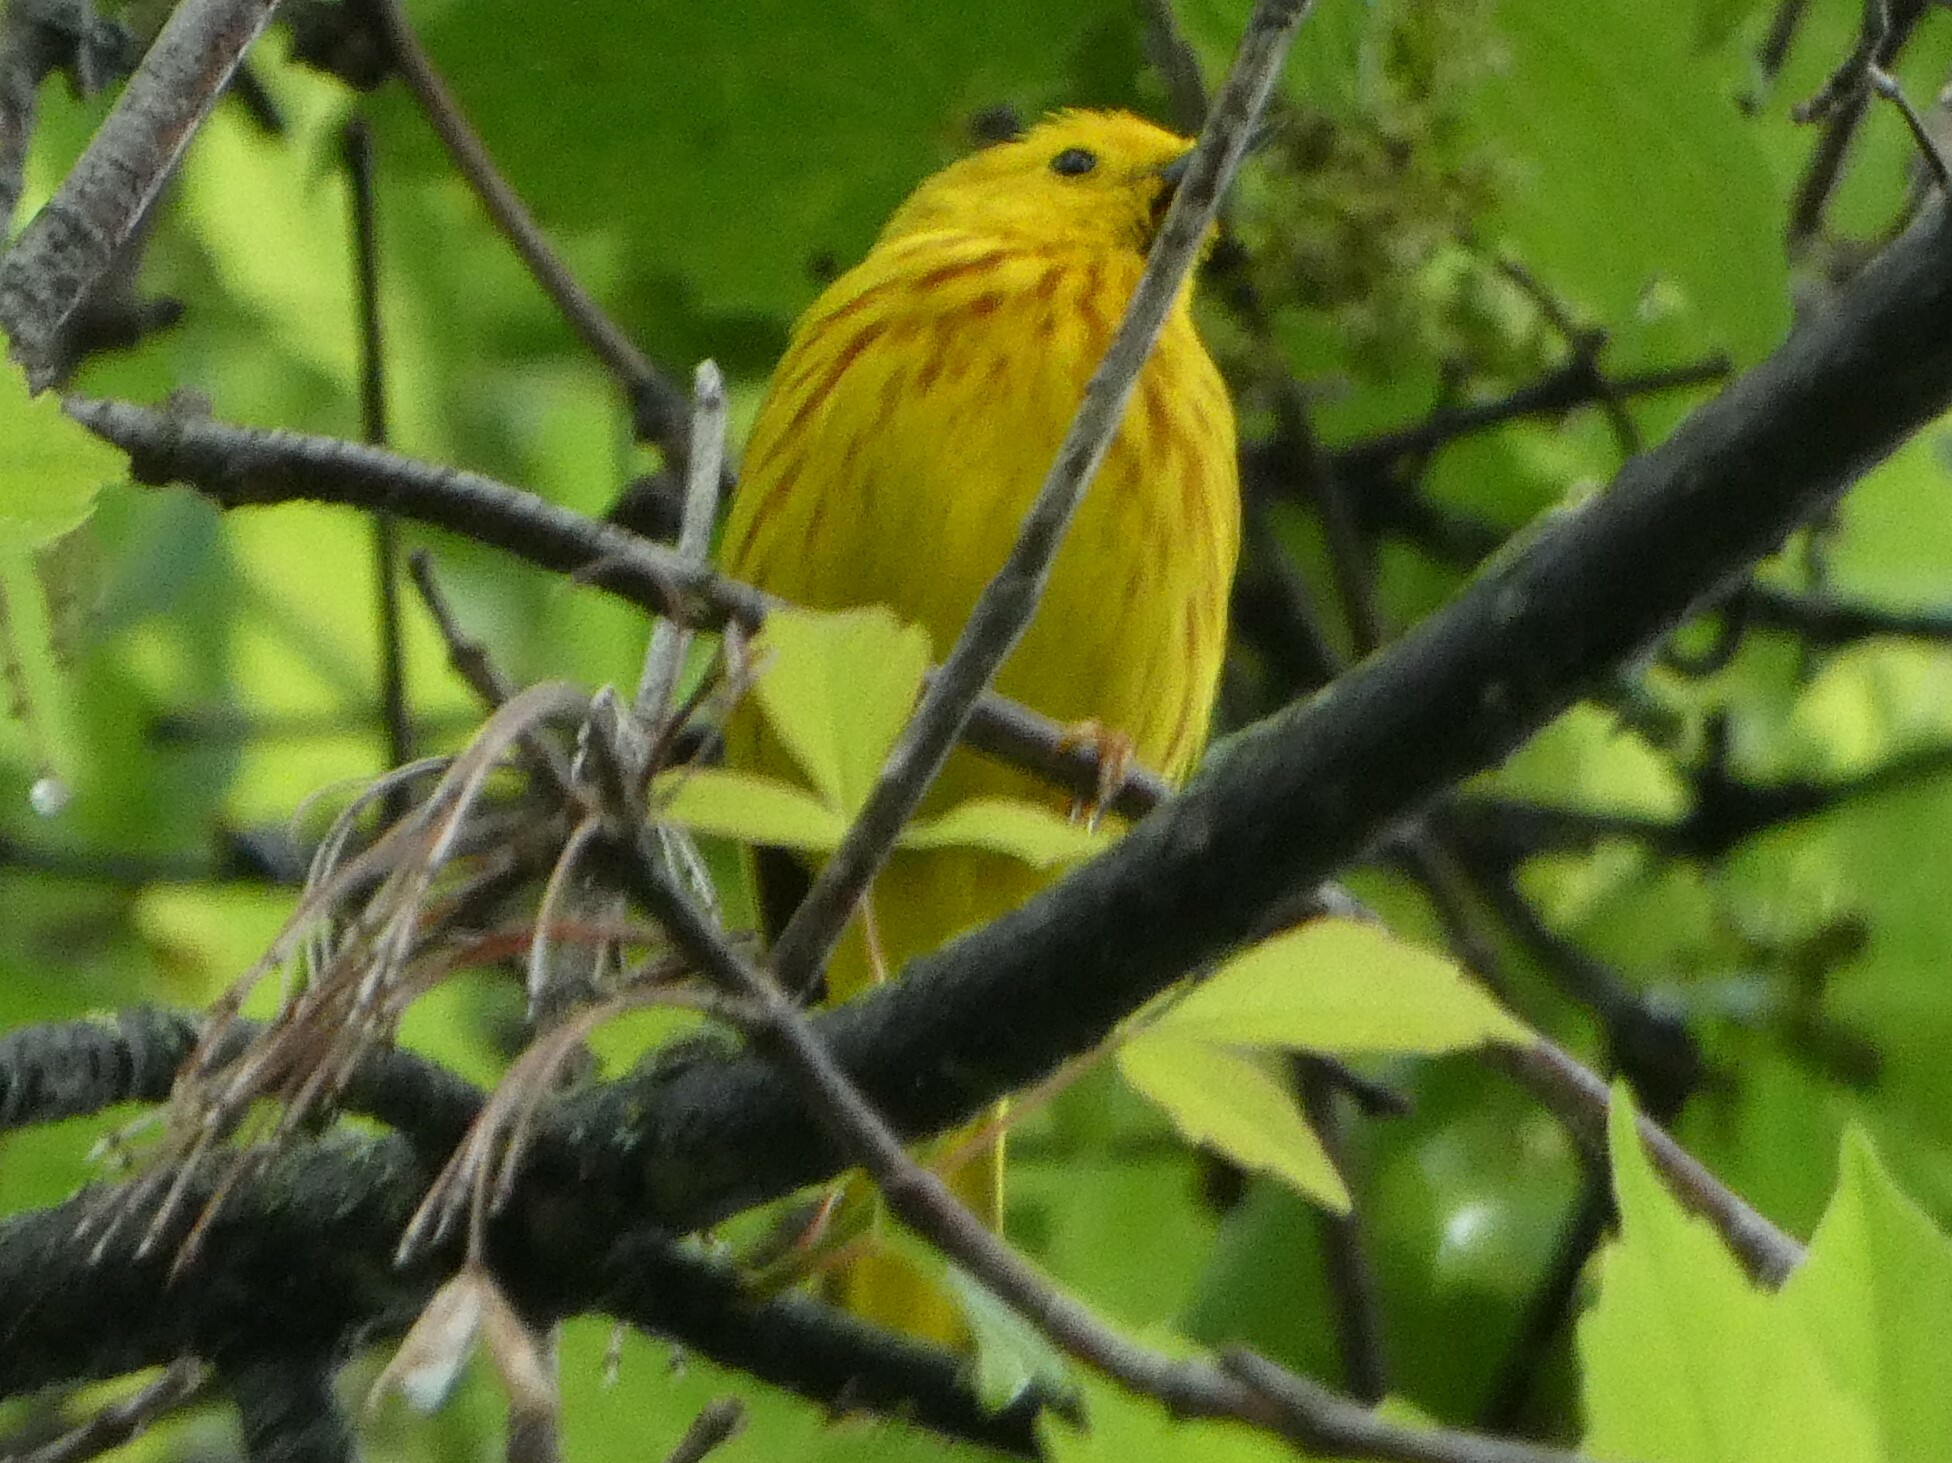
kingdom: Animalia
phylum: Chordata
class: Aves
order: Passeriformes
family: Parulidae
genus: Setophaga
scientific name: Setophaga petechia
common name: Yellow warbler
